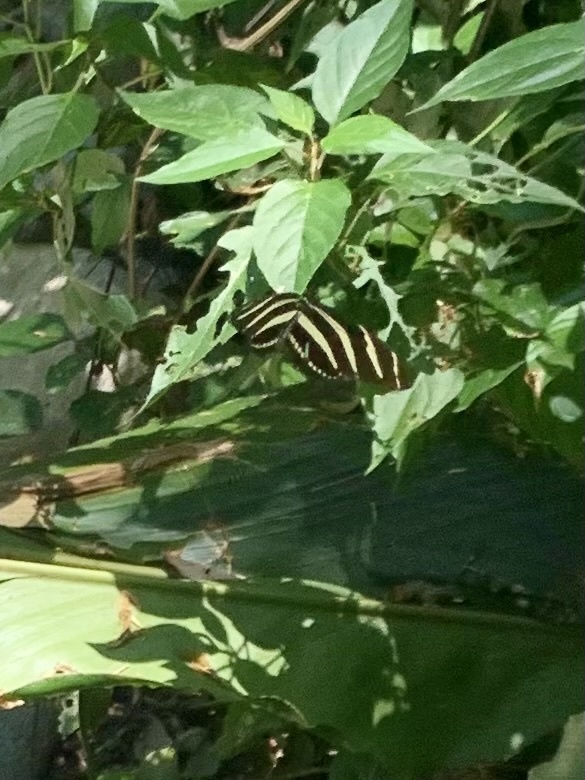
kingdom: Animalia
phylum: Arthropoda
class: Insecta
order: Lepidoptera
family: Nymphalidae
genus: Heliconius
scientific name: Heliconius charithonia
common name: Zebra long wing
